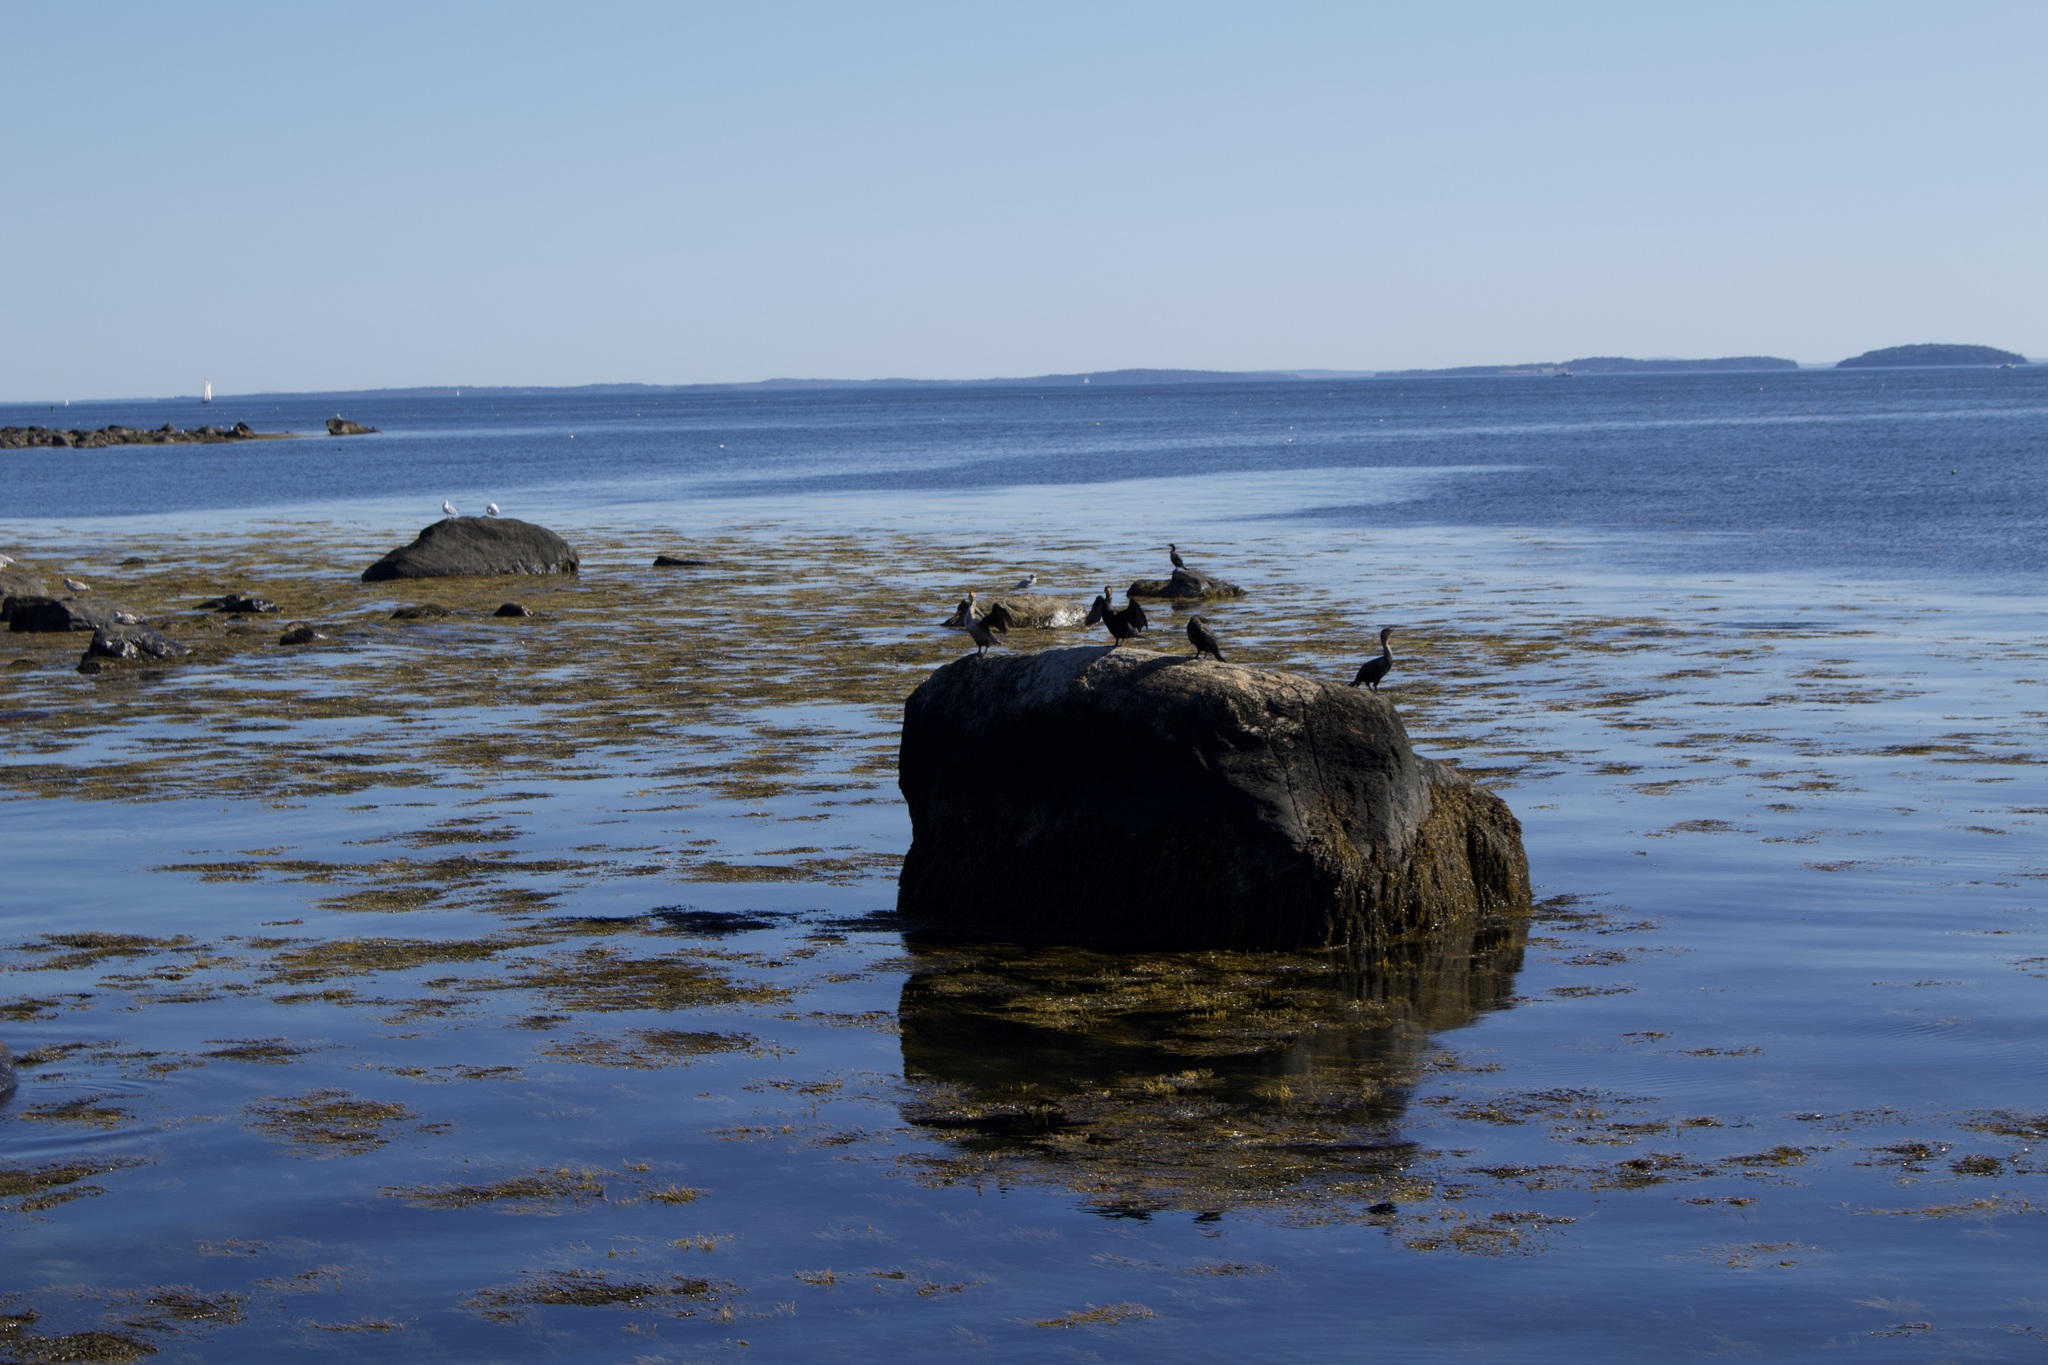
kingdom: Animalia
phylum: Chordata
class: Aves
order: Suliformes
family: Phalacrocoracidae
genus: Phalacrocorax
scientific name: Phalacrocorax auritus
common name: Double-crested cormorant
